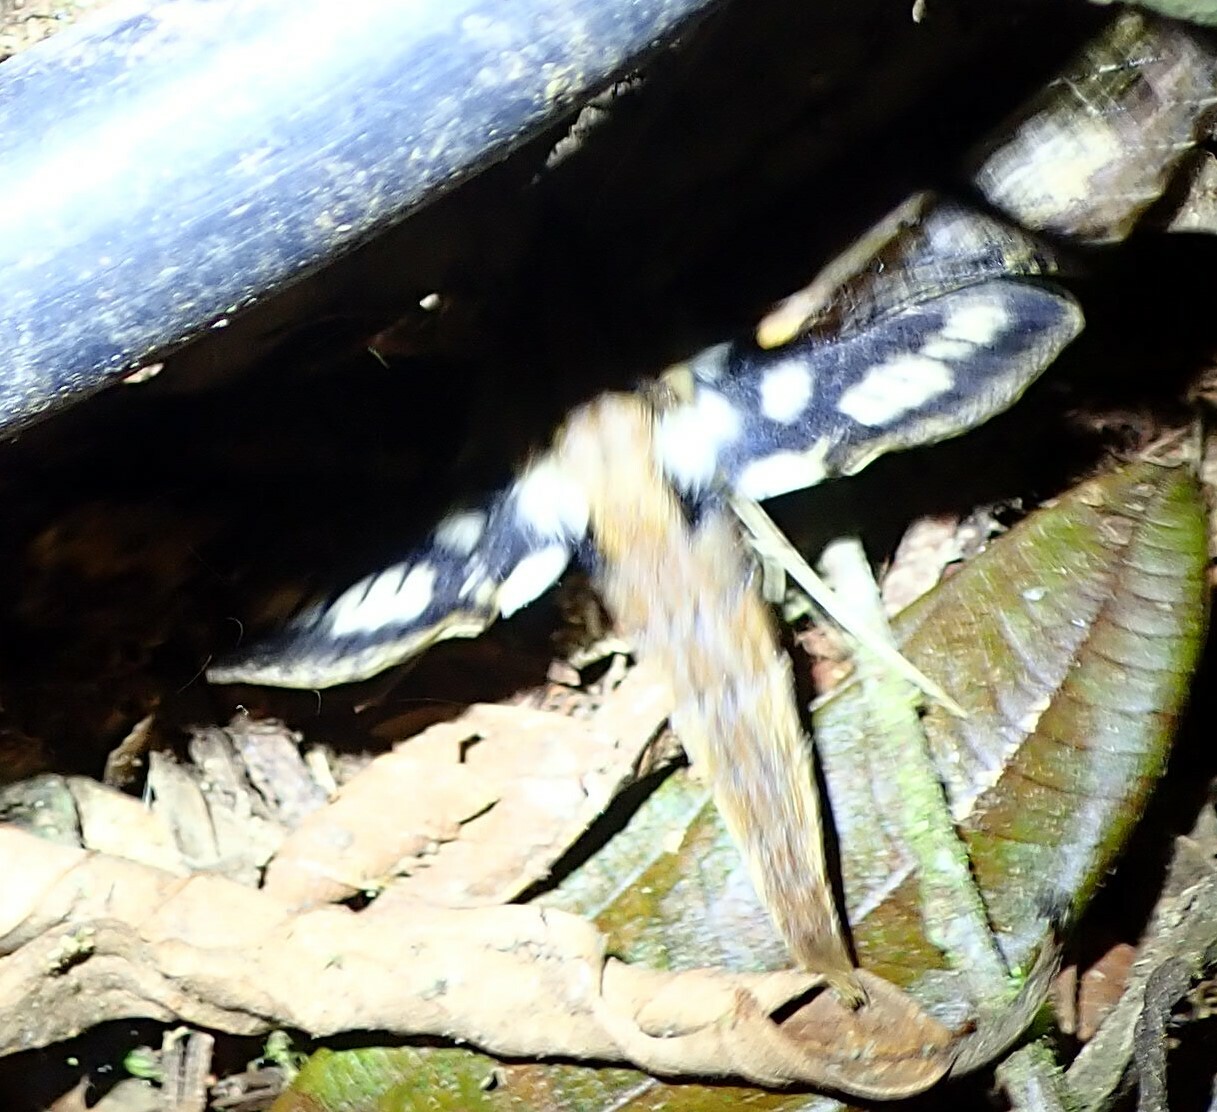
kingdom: Animalia
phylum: Arthropoda
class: Insecta
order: Lepidoptera
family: Sphingidae
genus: Xylophanes
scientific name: Xylophanes ceratomioides
